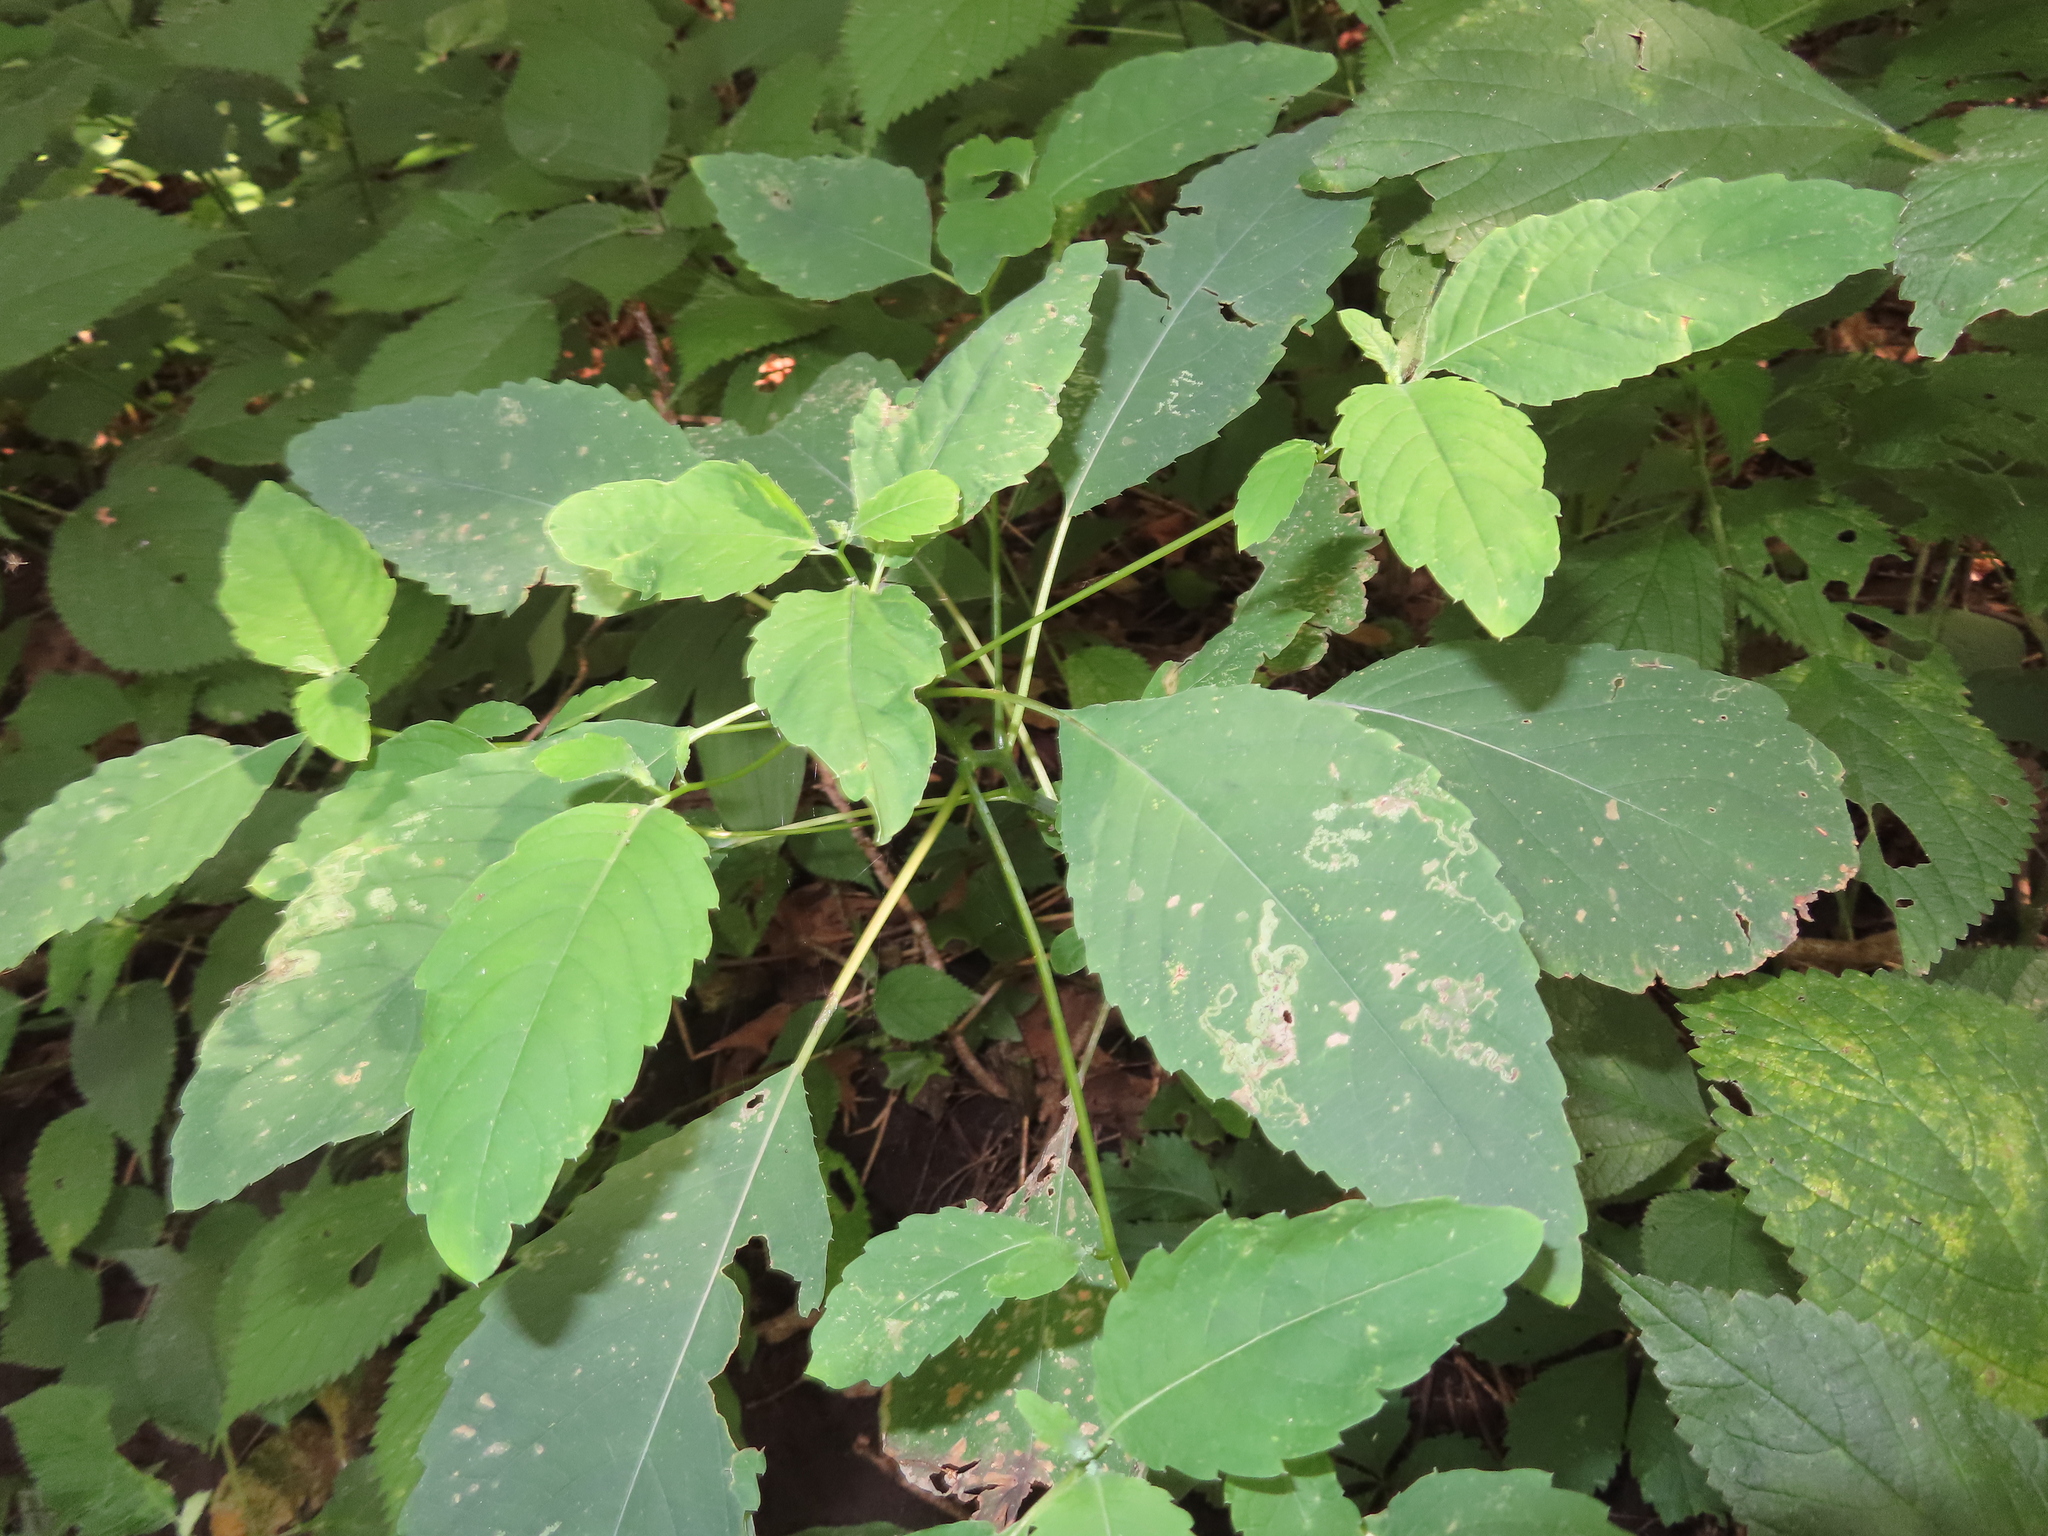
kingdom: Animalia
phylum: Arthropoda
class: Insecta
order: Diptera
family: Agromyzidae
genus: Phytoliriomyza
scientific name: Phytoliriomyza melampyga
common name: Jewelweed leaf-miner fly
